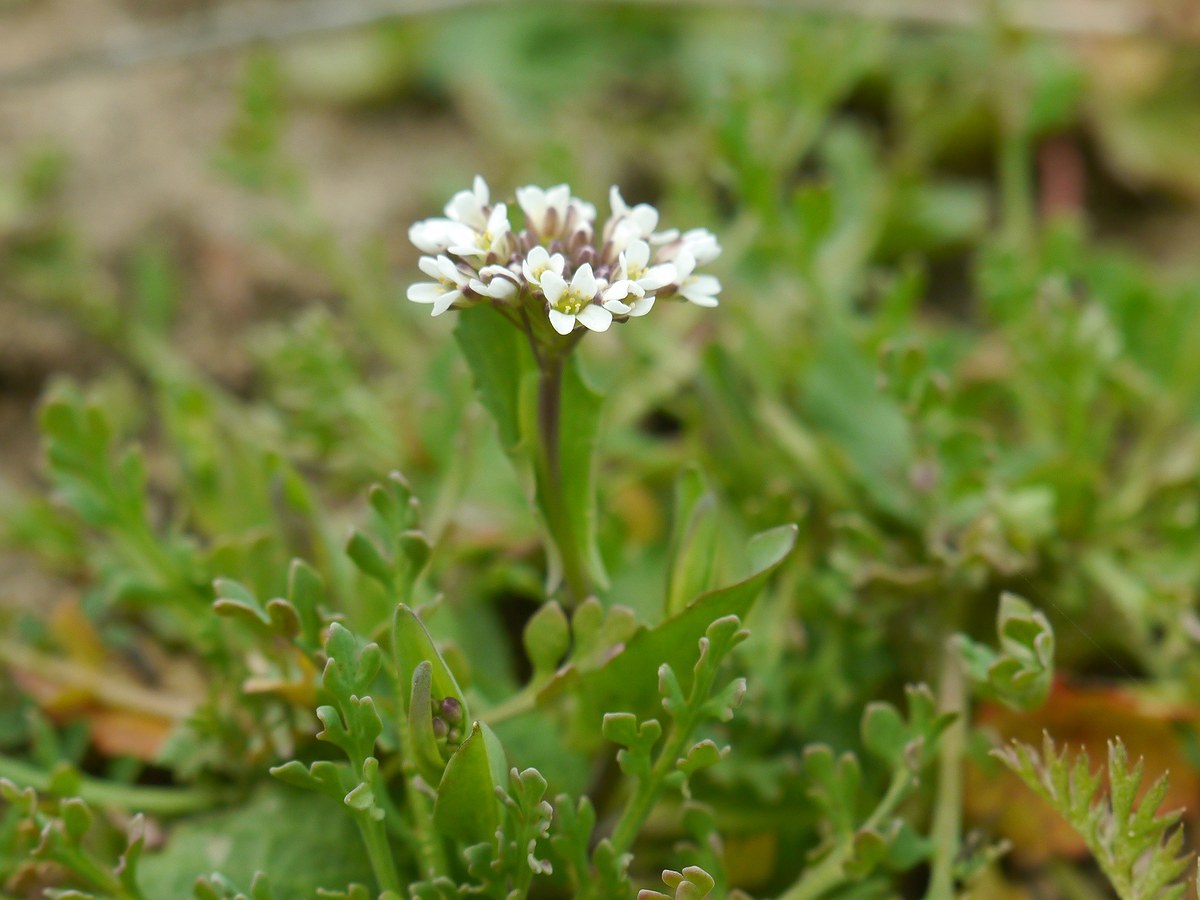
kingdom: Plantae
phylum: Tracheophyta
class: Magnoliopsida
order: Brassicales
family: Brassicaceae
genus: Capsella
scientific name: Capsella bursa-pastoris
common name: Shepherd's purse
